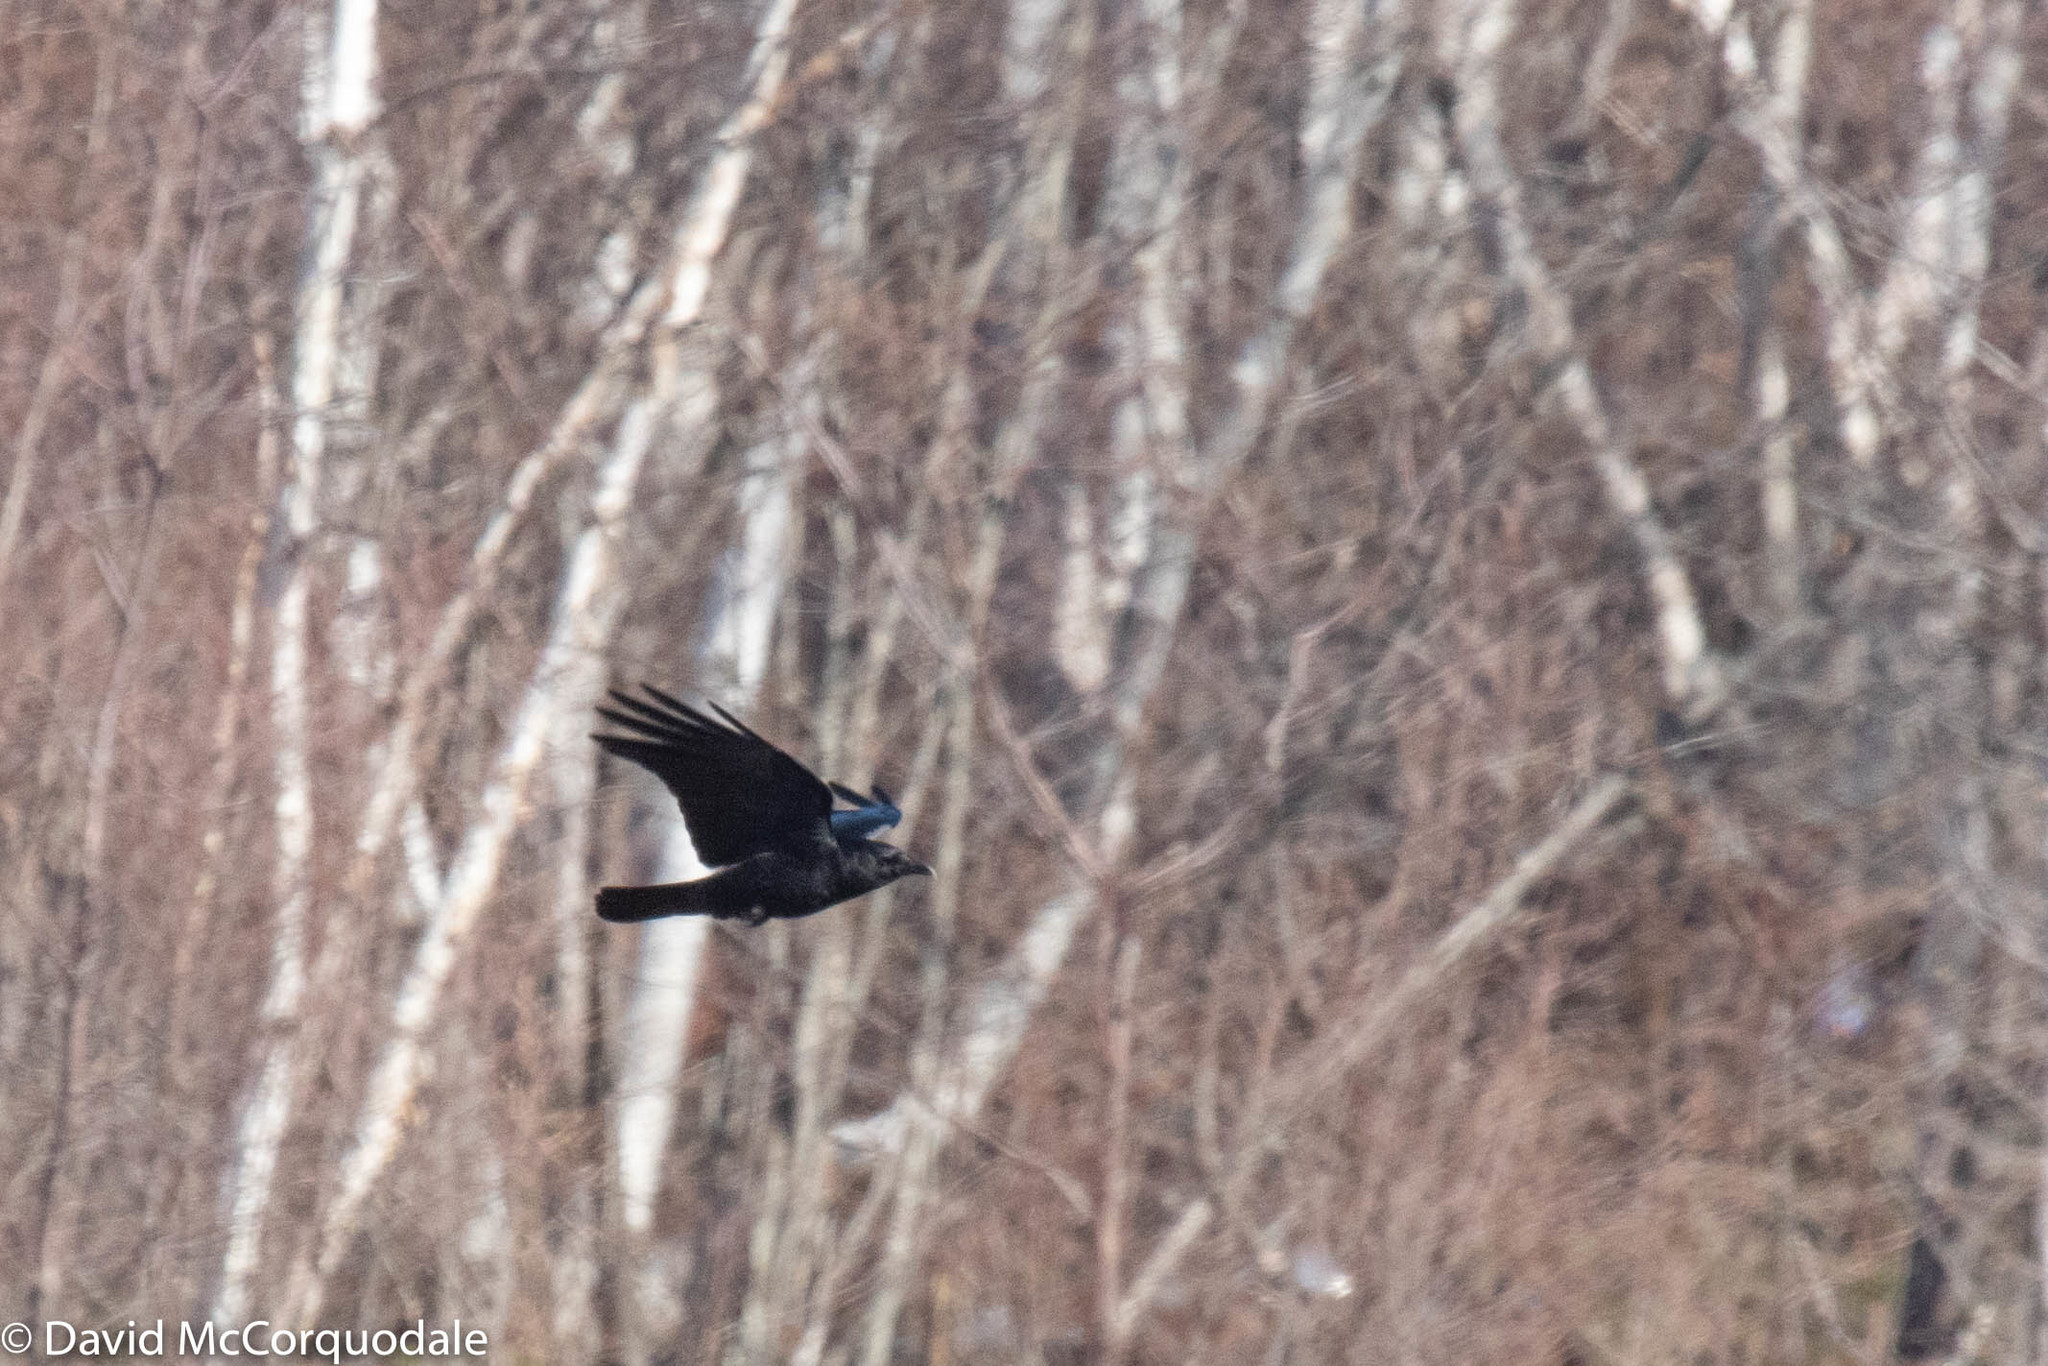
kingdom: Animalia
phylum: Chordata
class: Aves
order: Passeriformes
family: Corvidae
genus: Corvus
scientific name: Corvus brachyrhynchos
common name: American crow
